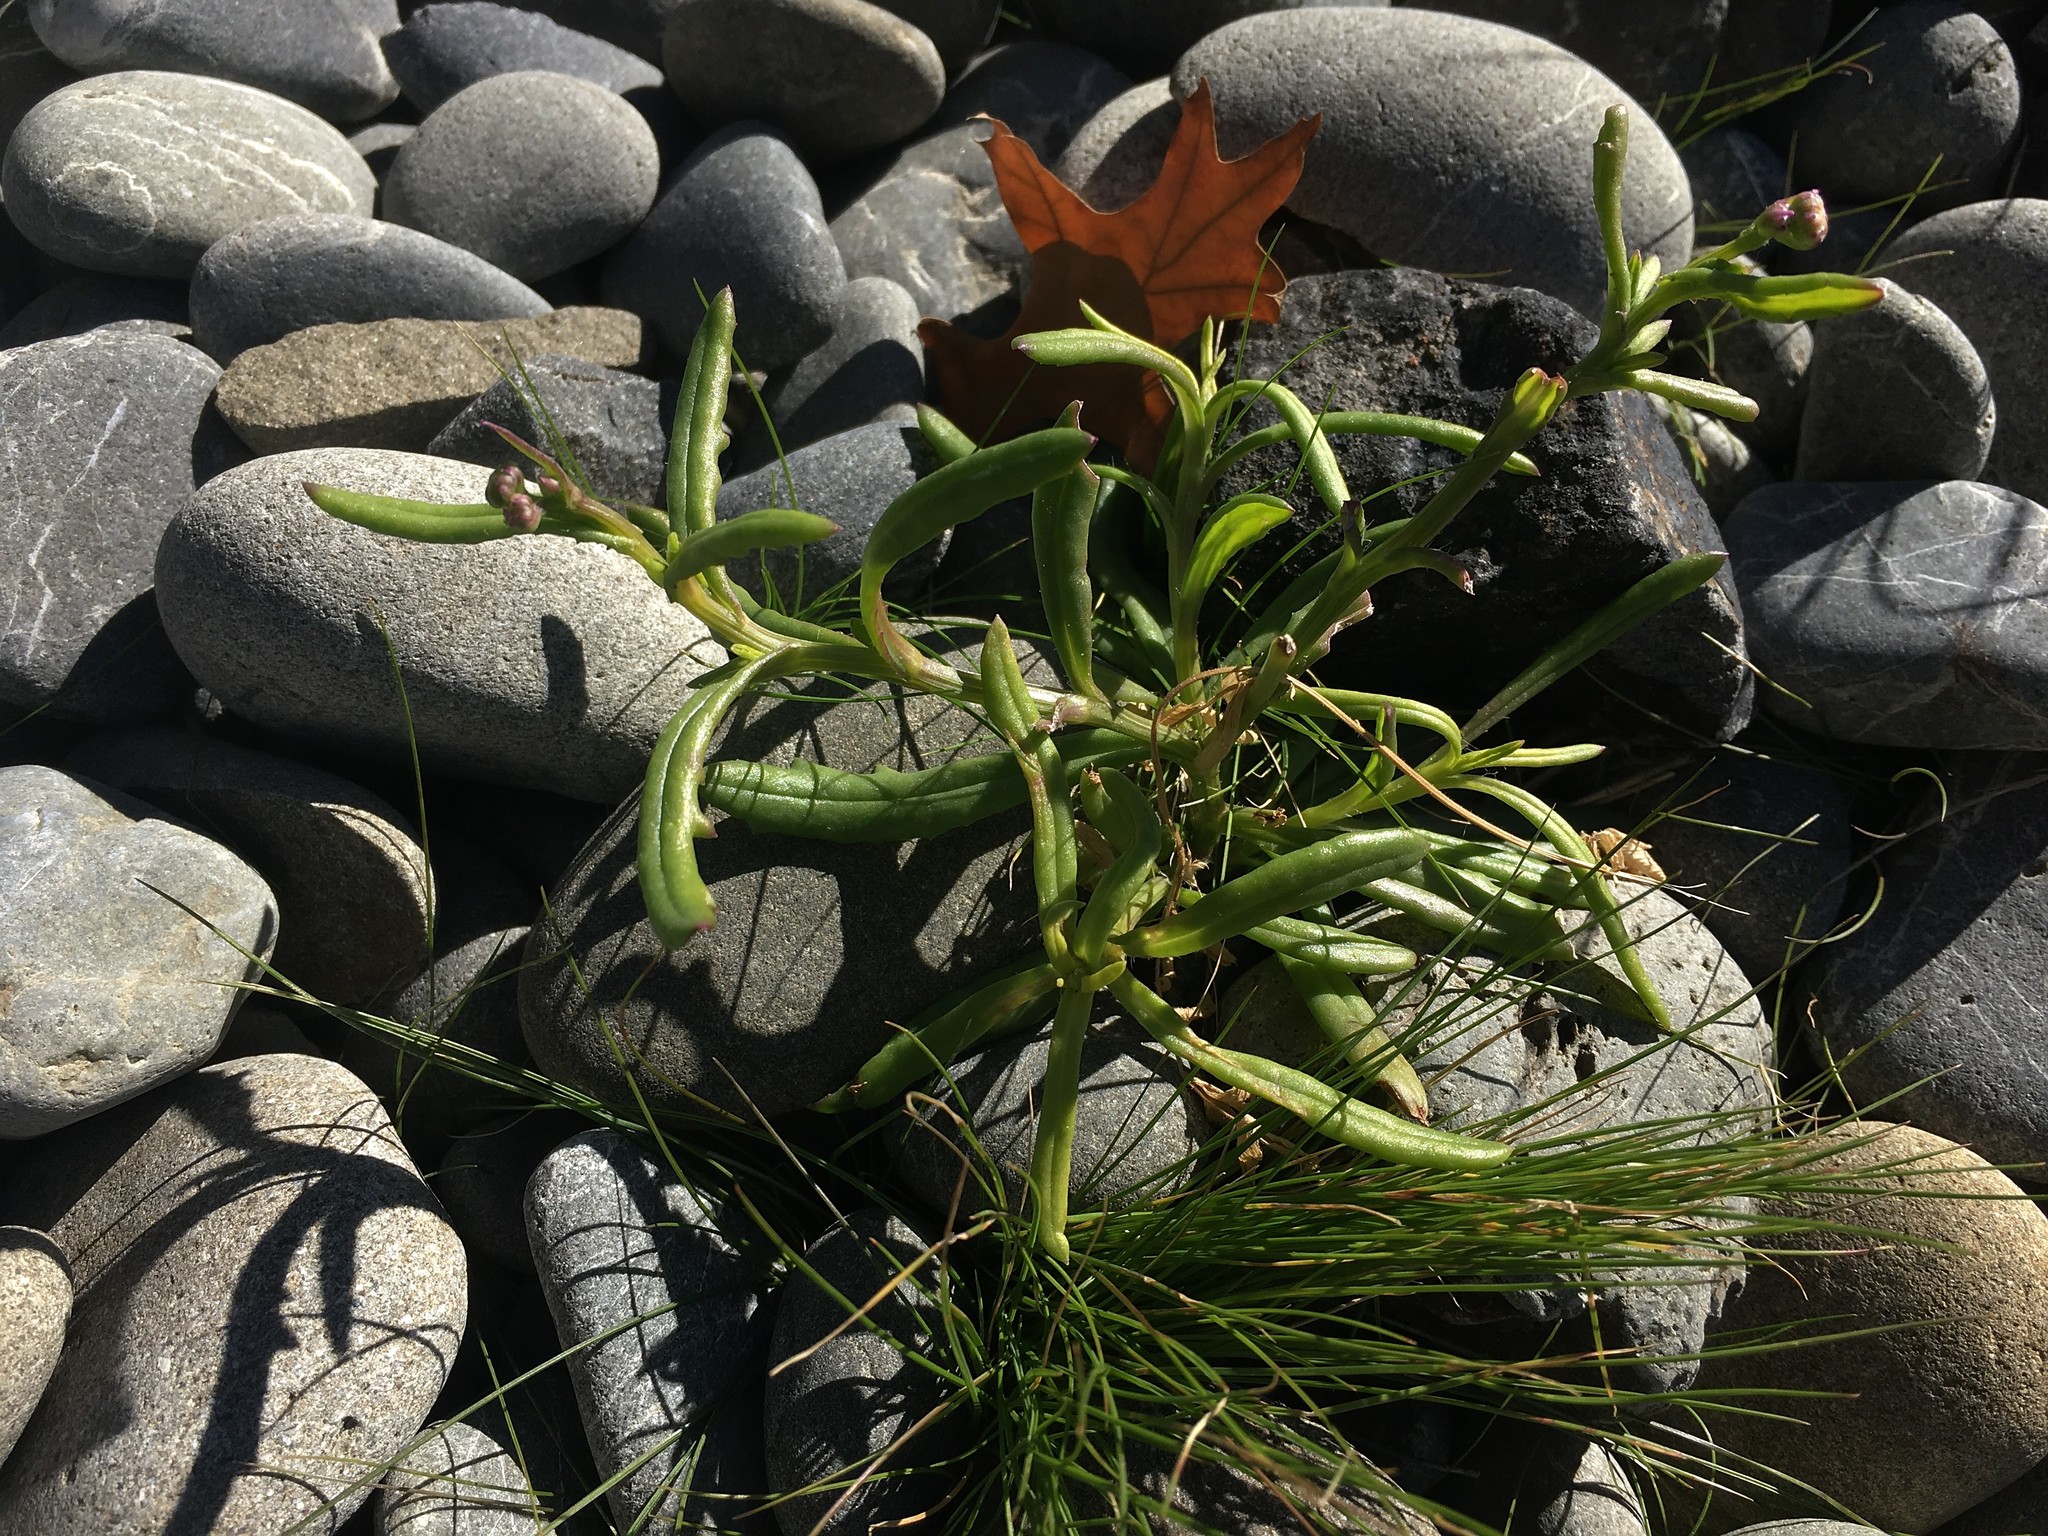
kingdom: Plantae
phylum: Tracheophyta
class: Magnoliopsida
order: Asterales
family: Asteraceae
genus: Senecio
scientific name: Senecio skirrhodon
